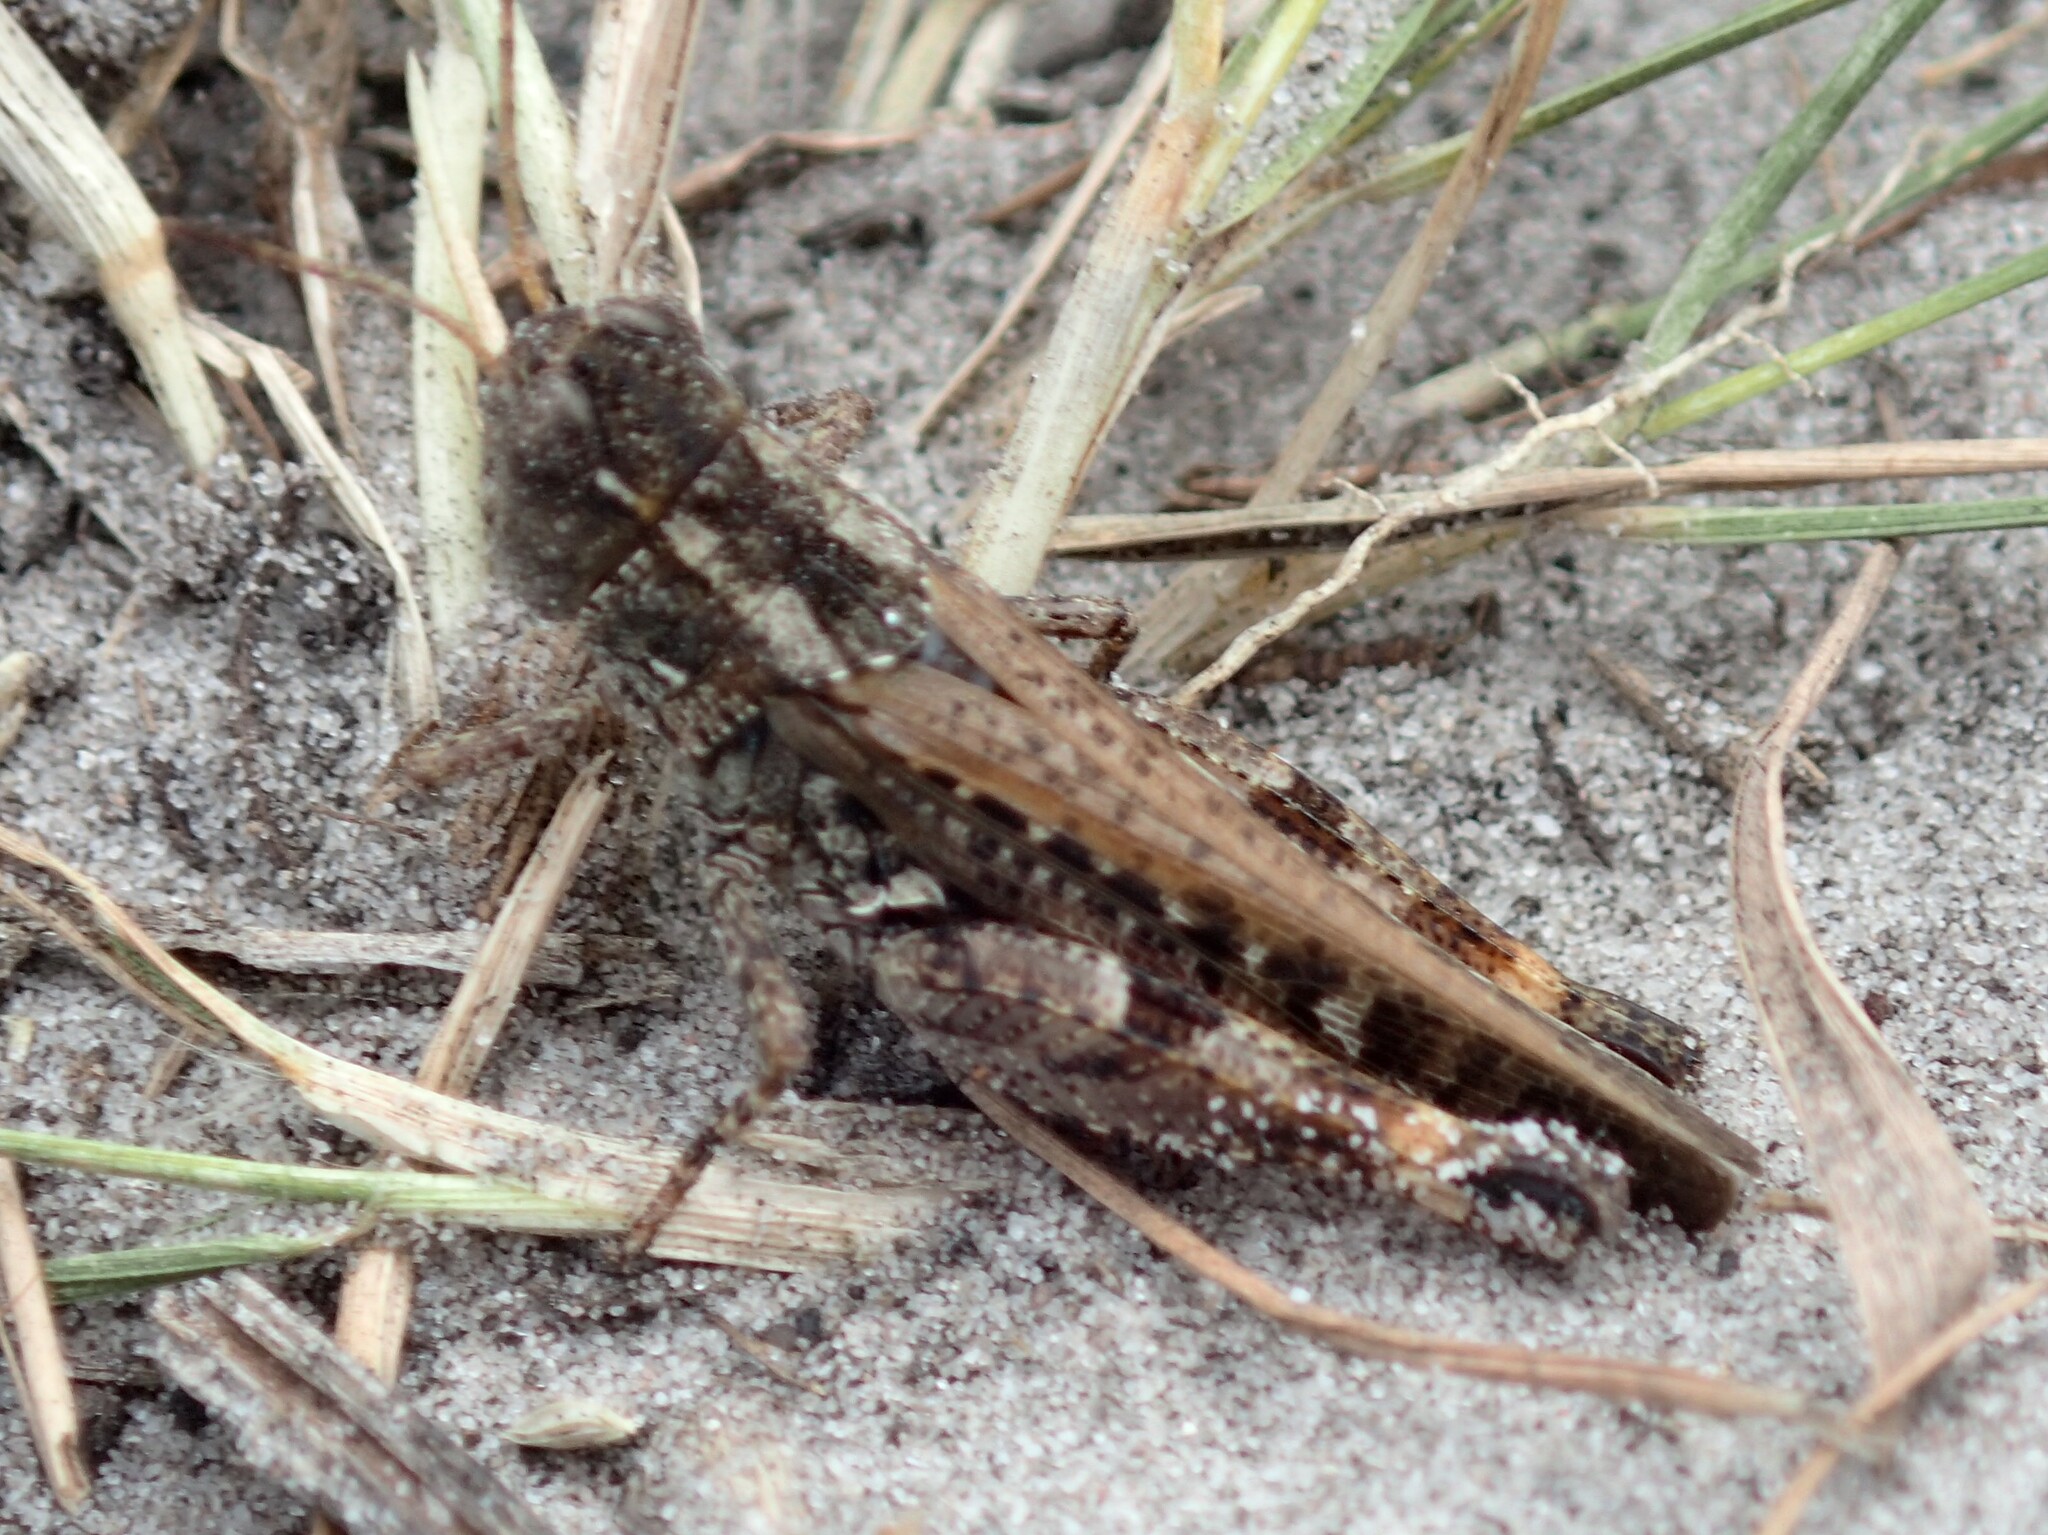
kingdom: Animalia
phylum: Arthropoda
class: Insecta
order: Orthoptera
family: Acrididae
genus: Exarna
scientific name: Exarna includens
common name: Red-legged exarna
